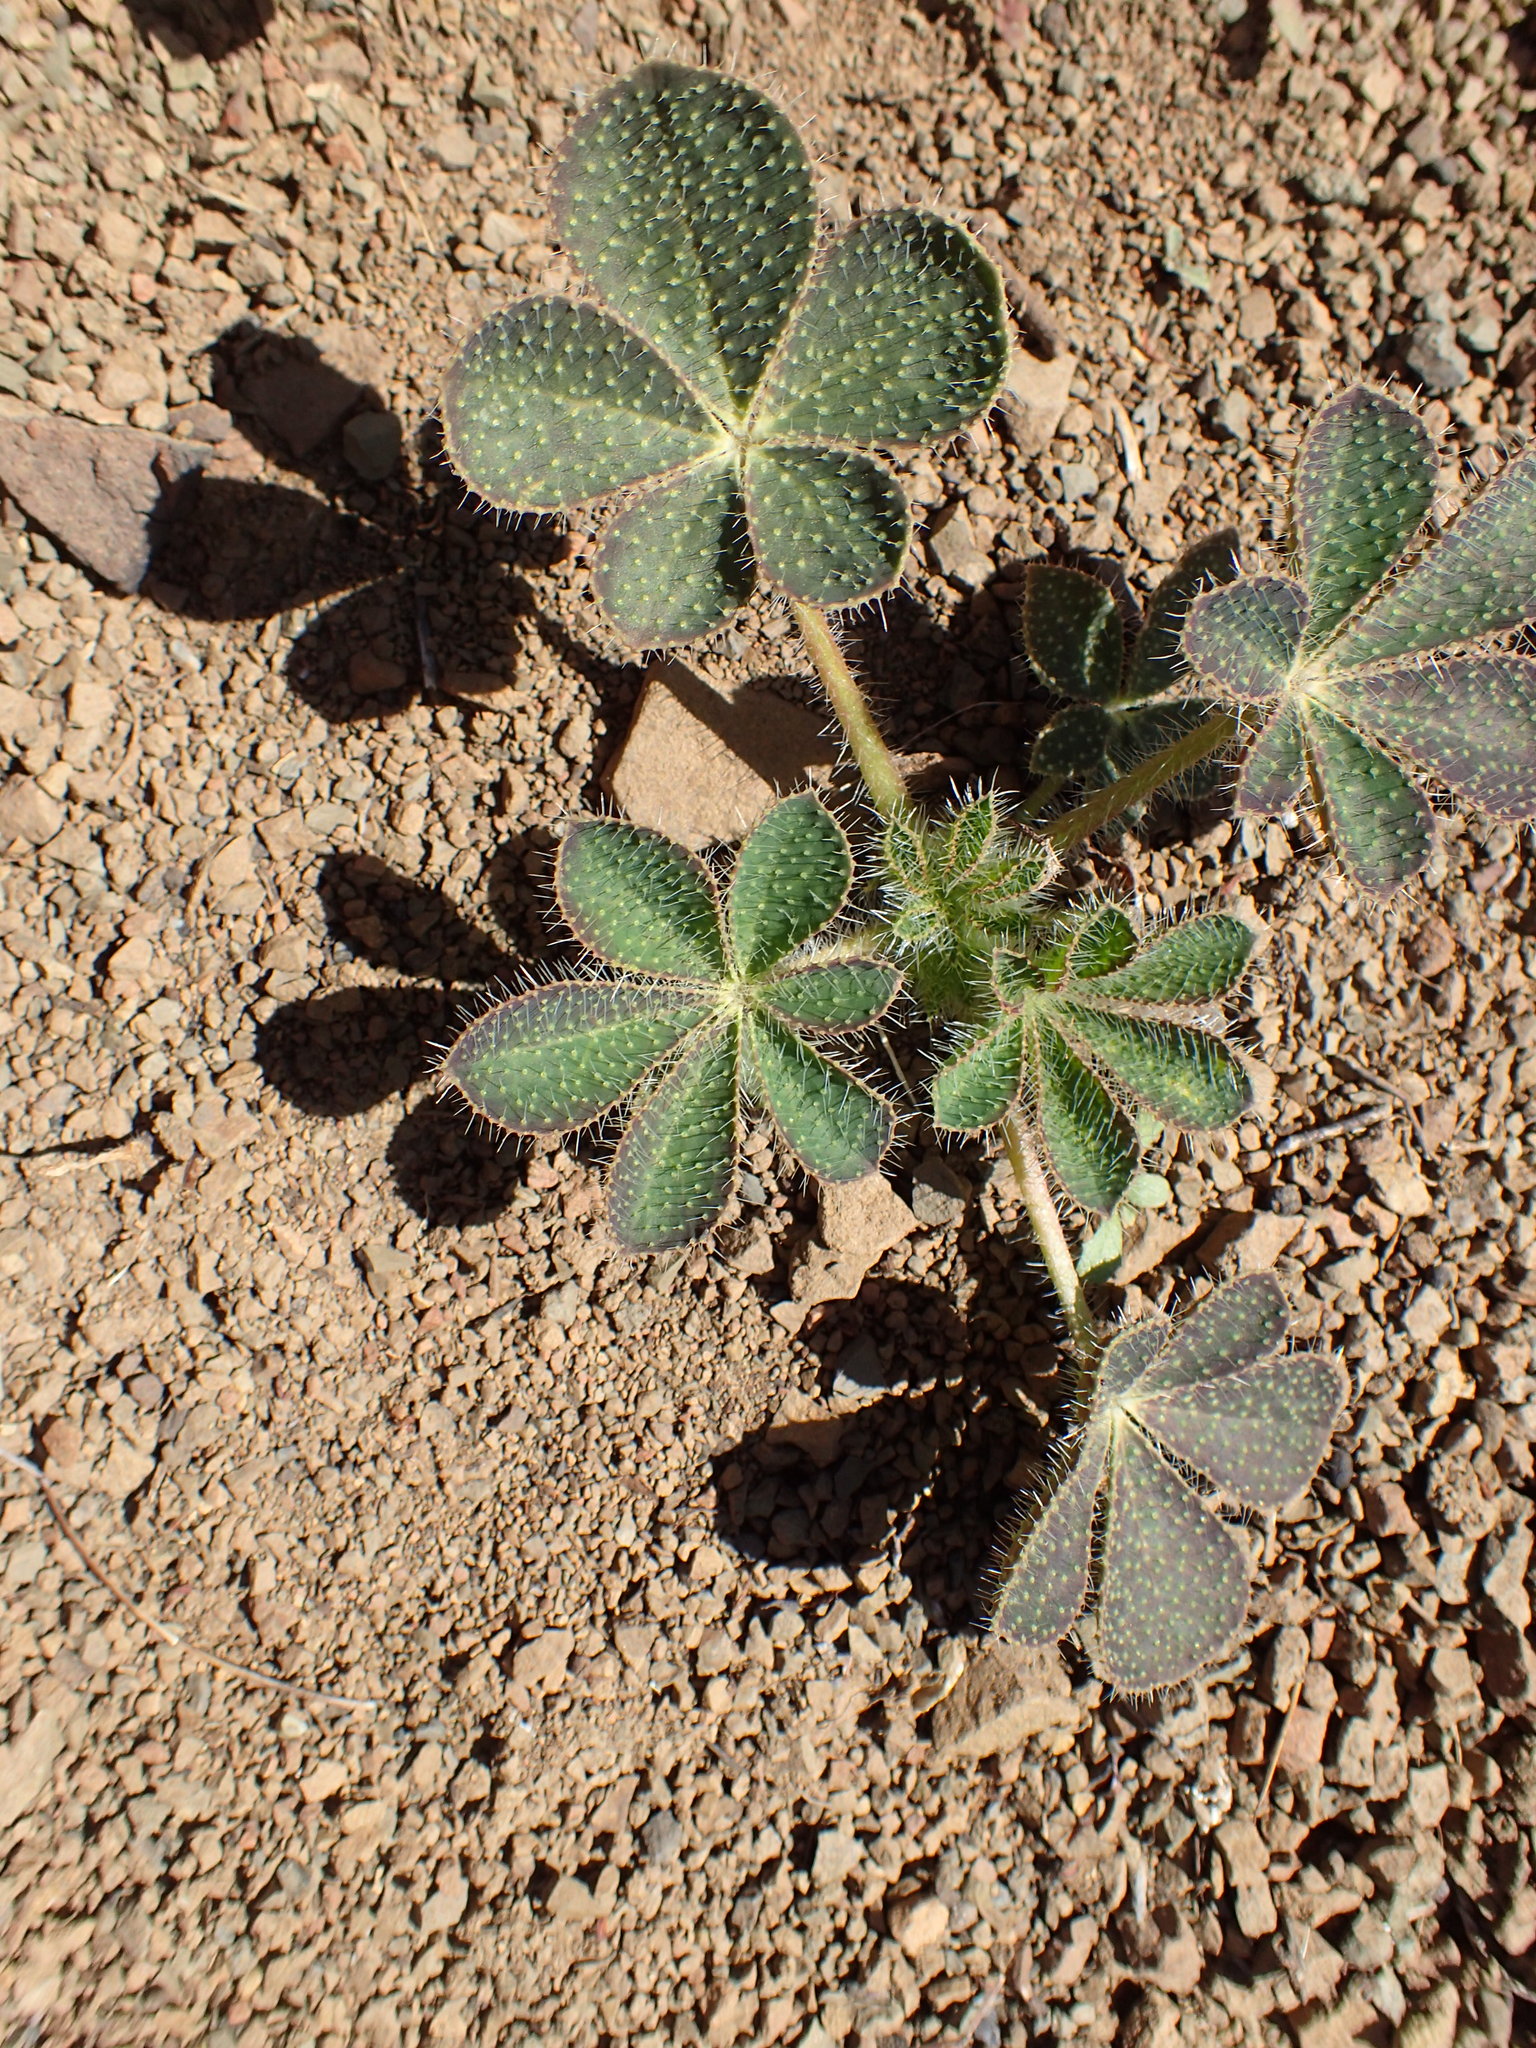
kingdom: Plantae
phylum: Tracheophyta
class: Magnoliopsida
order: Fabales
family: Fabaceae
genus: Lupinus
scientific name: Lupinus hirsutissimus
